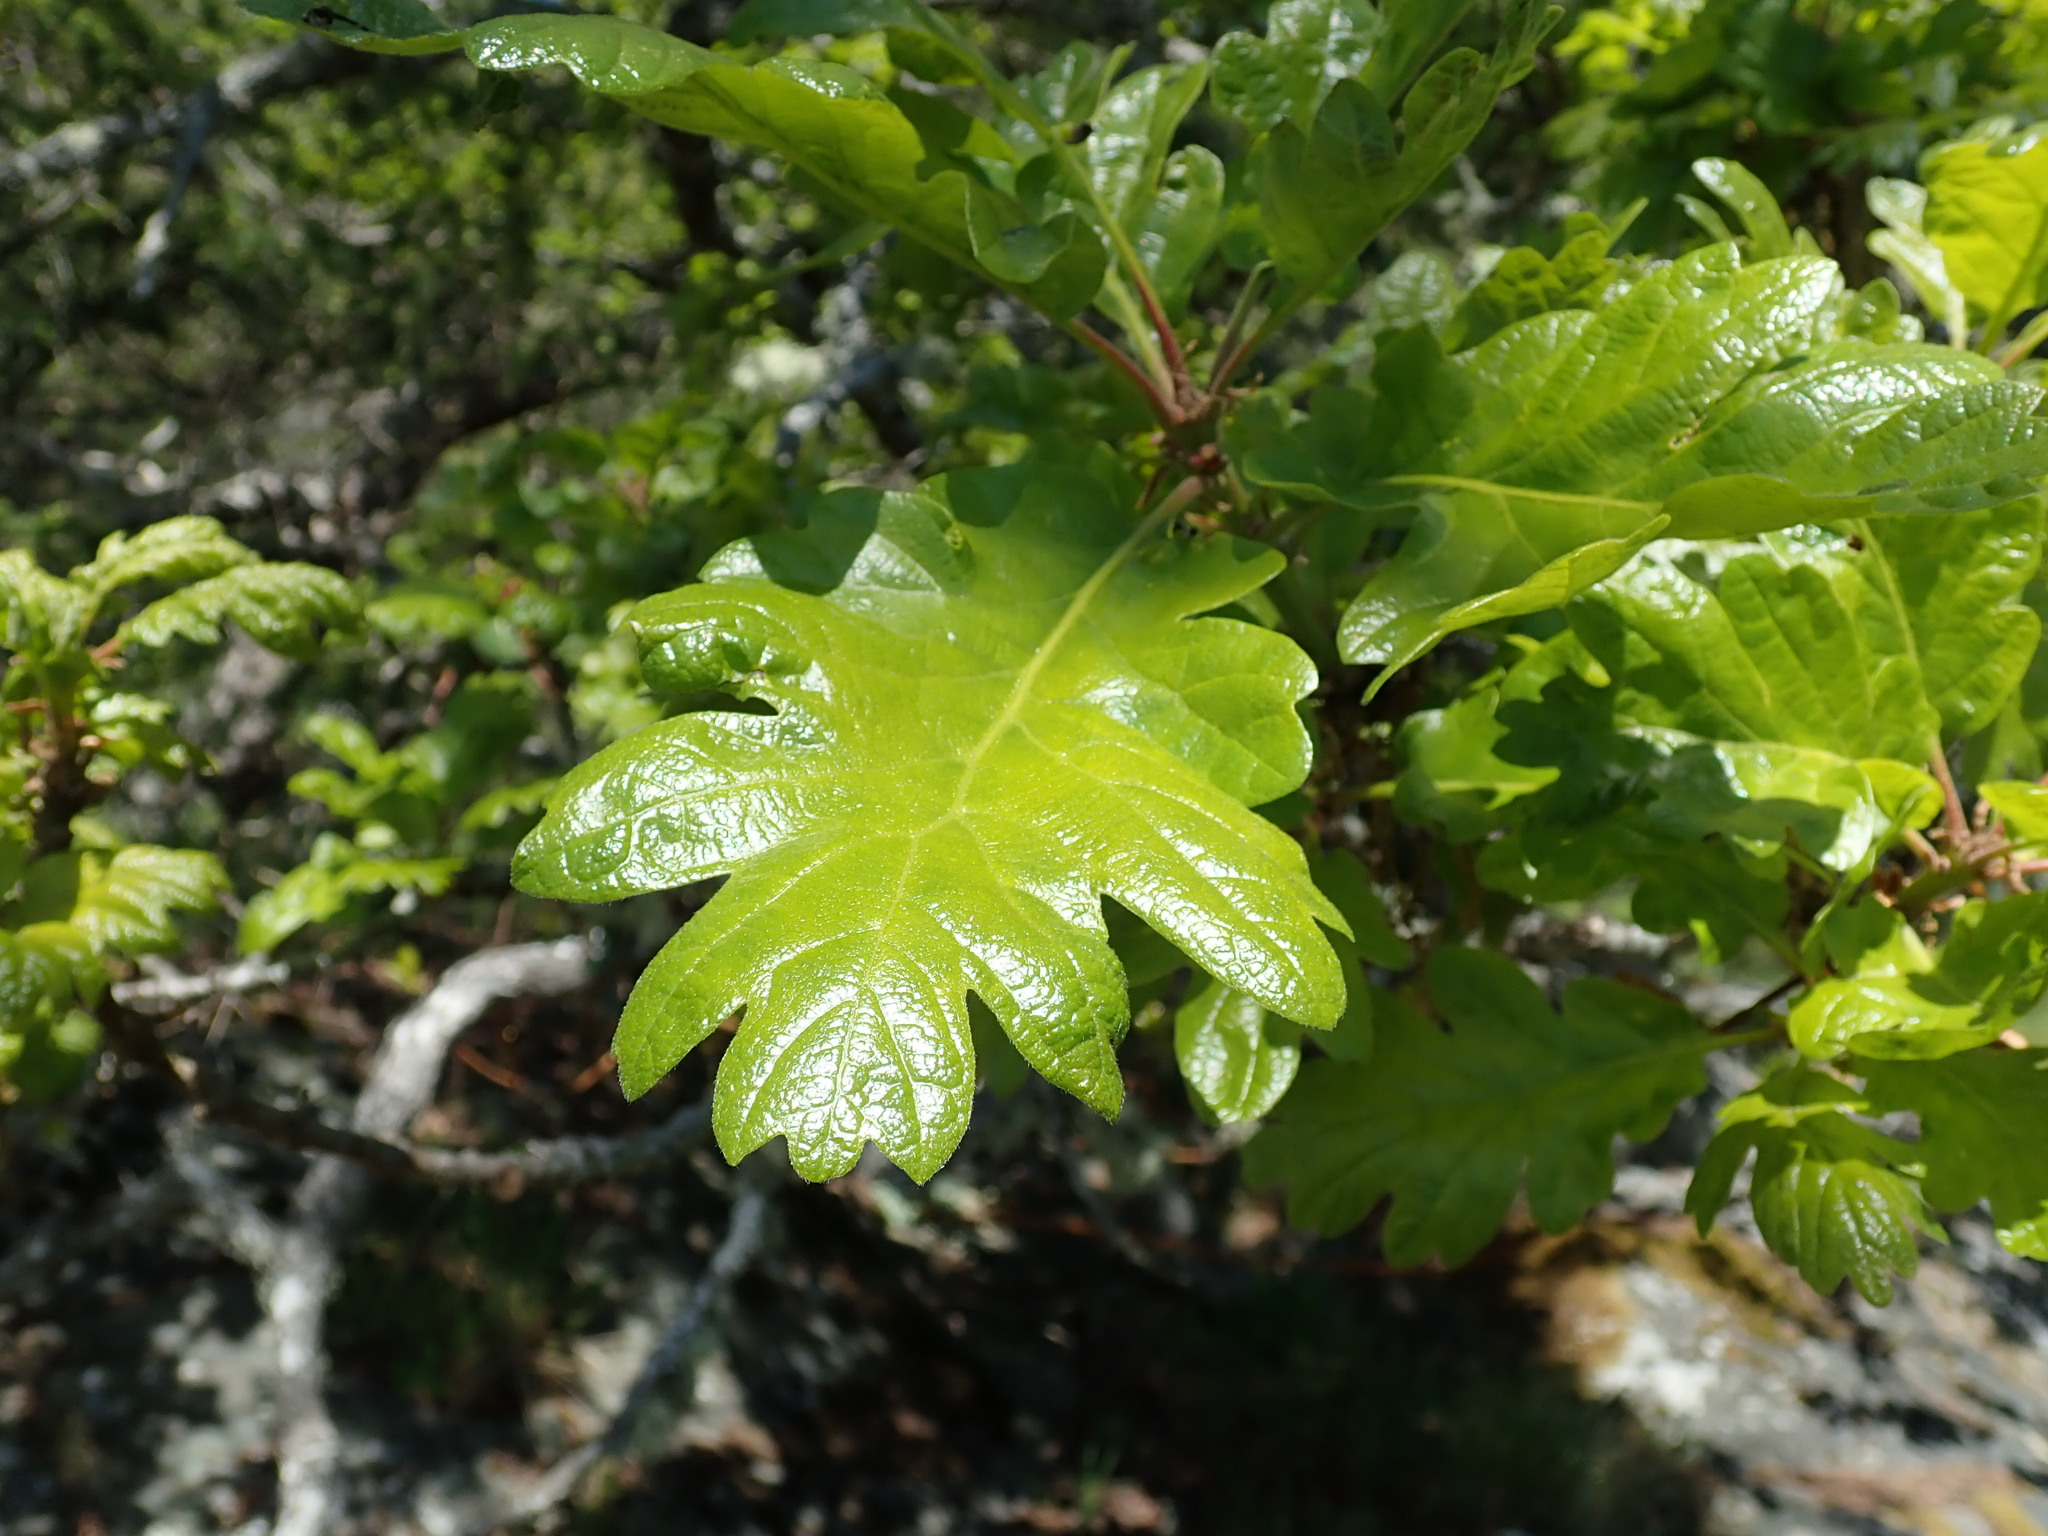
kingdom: Plantae
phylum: Tracheophyta
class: Magnoliopsida
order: Fagales
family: Fagaceae
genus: Quercus
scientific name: Quercus garryana
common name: Garry oak
